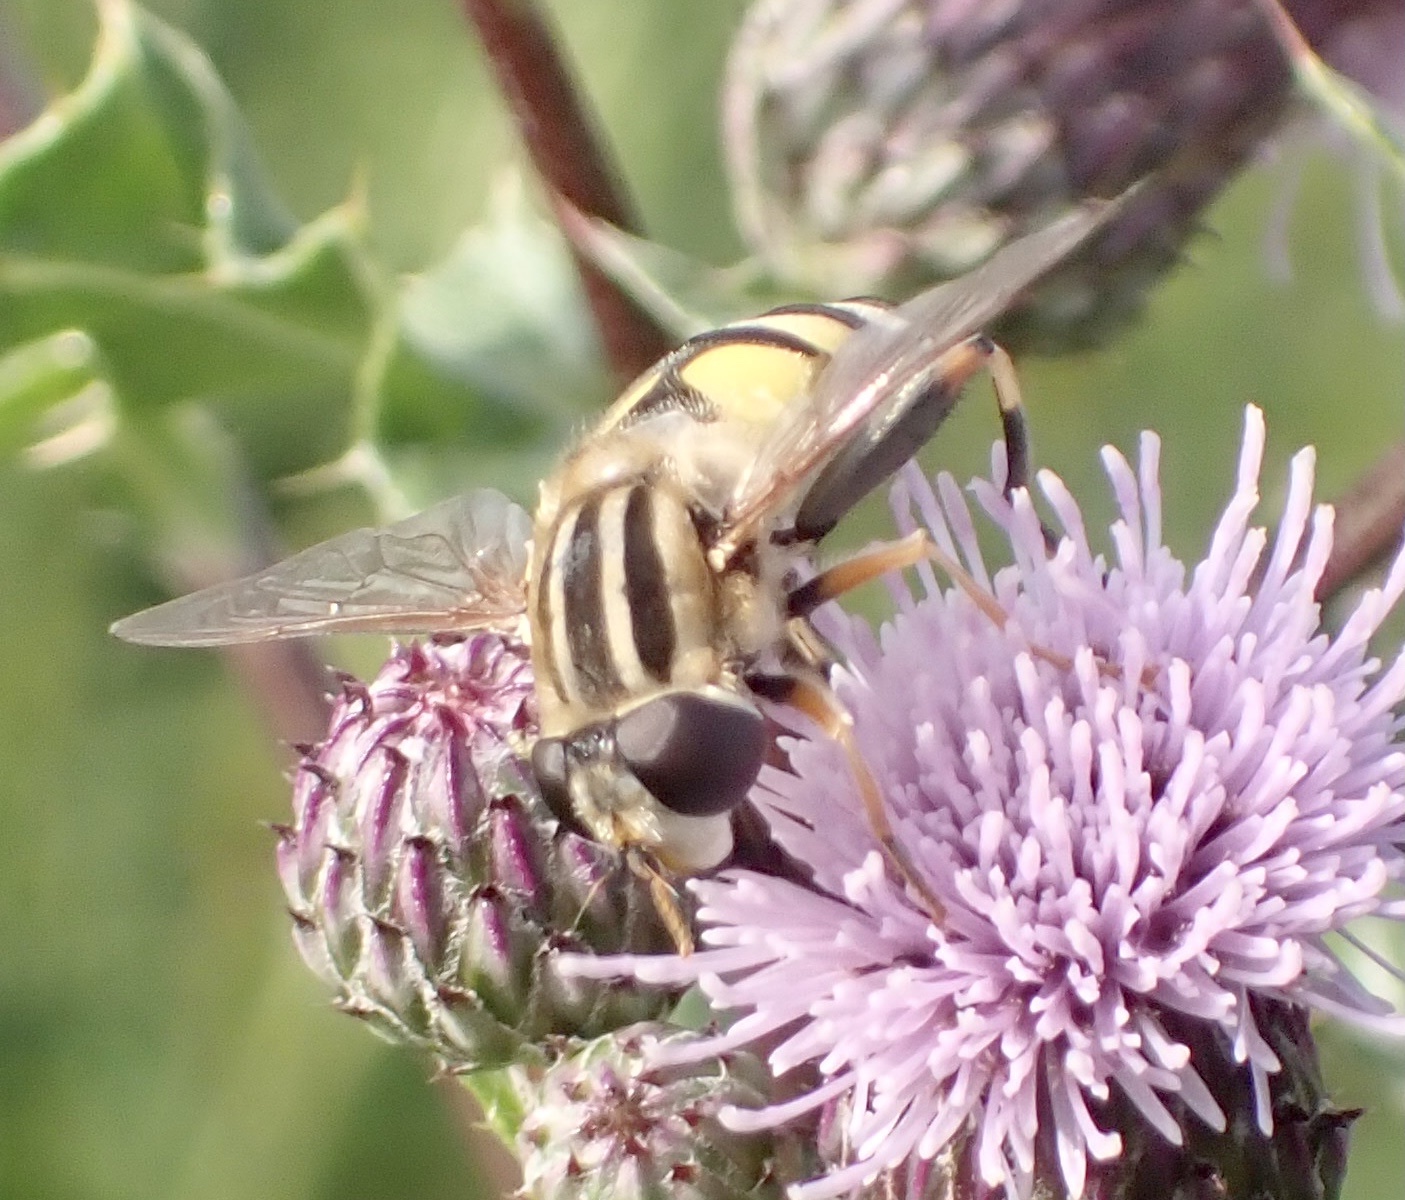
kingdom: Animalia
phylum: Arthropoda
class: Insecta
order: Diptera
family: Syrphidae
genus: Helophilus
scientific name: Helophilus trivittatus
